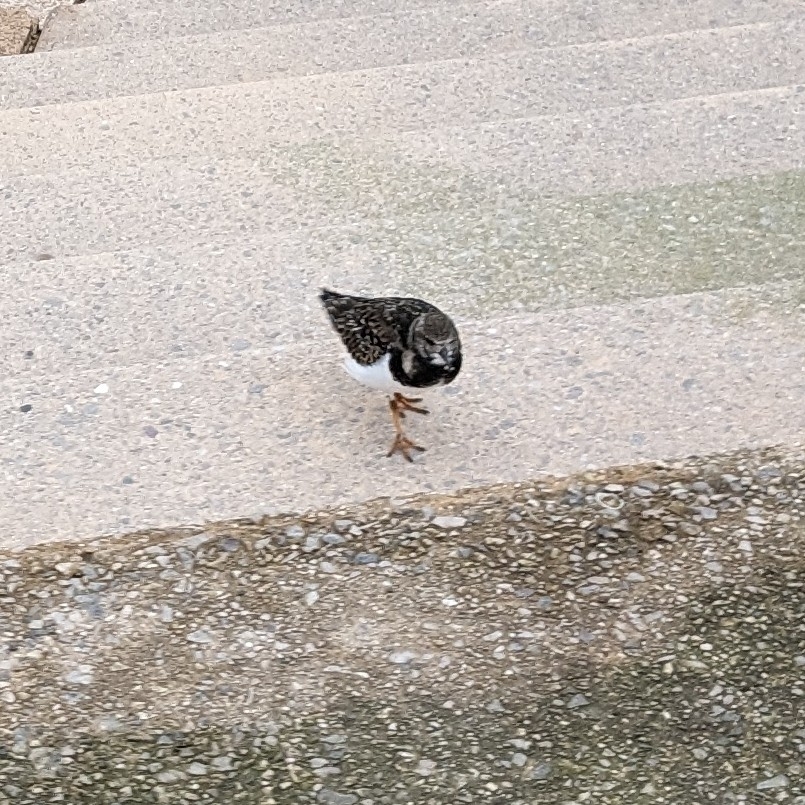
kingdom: Animalia
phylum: Chordata
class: Aves
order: Charadriiformes
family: Scolopacidae
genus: Arenaria
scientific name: Arenaria interpres
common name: Ruddy turnstone
